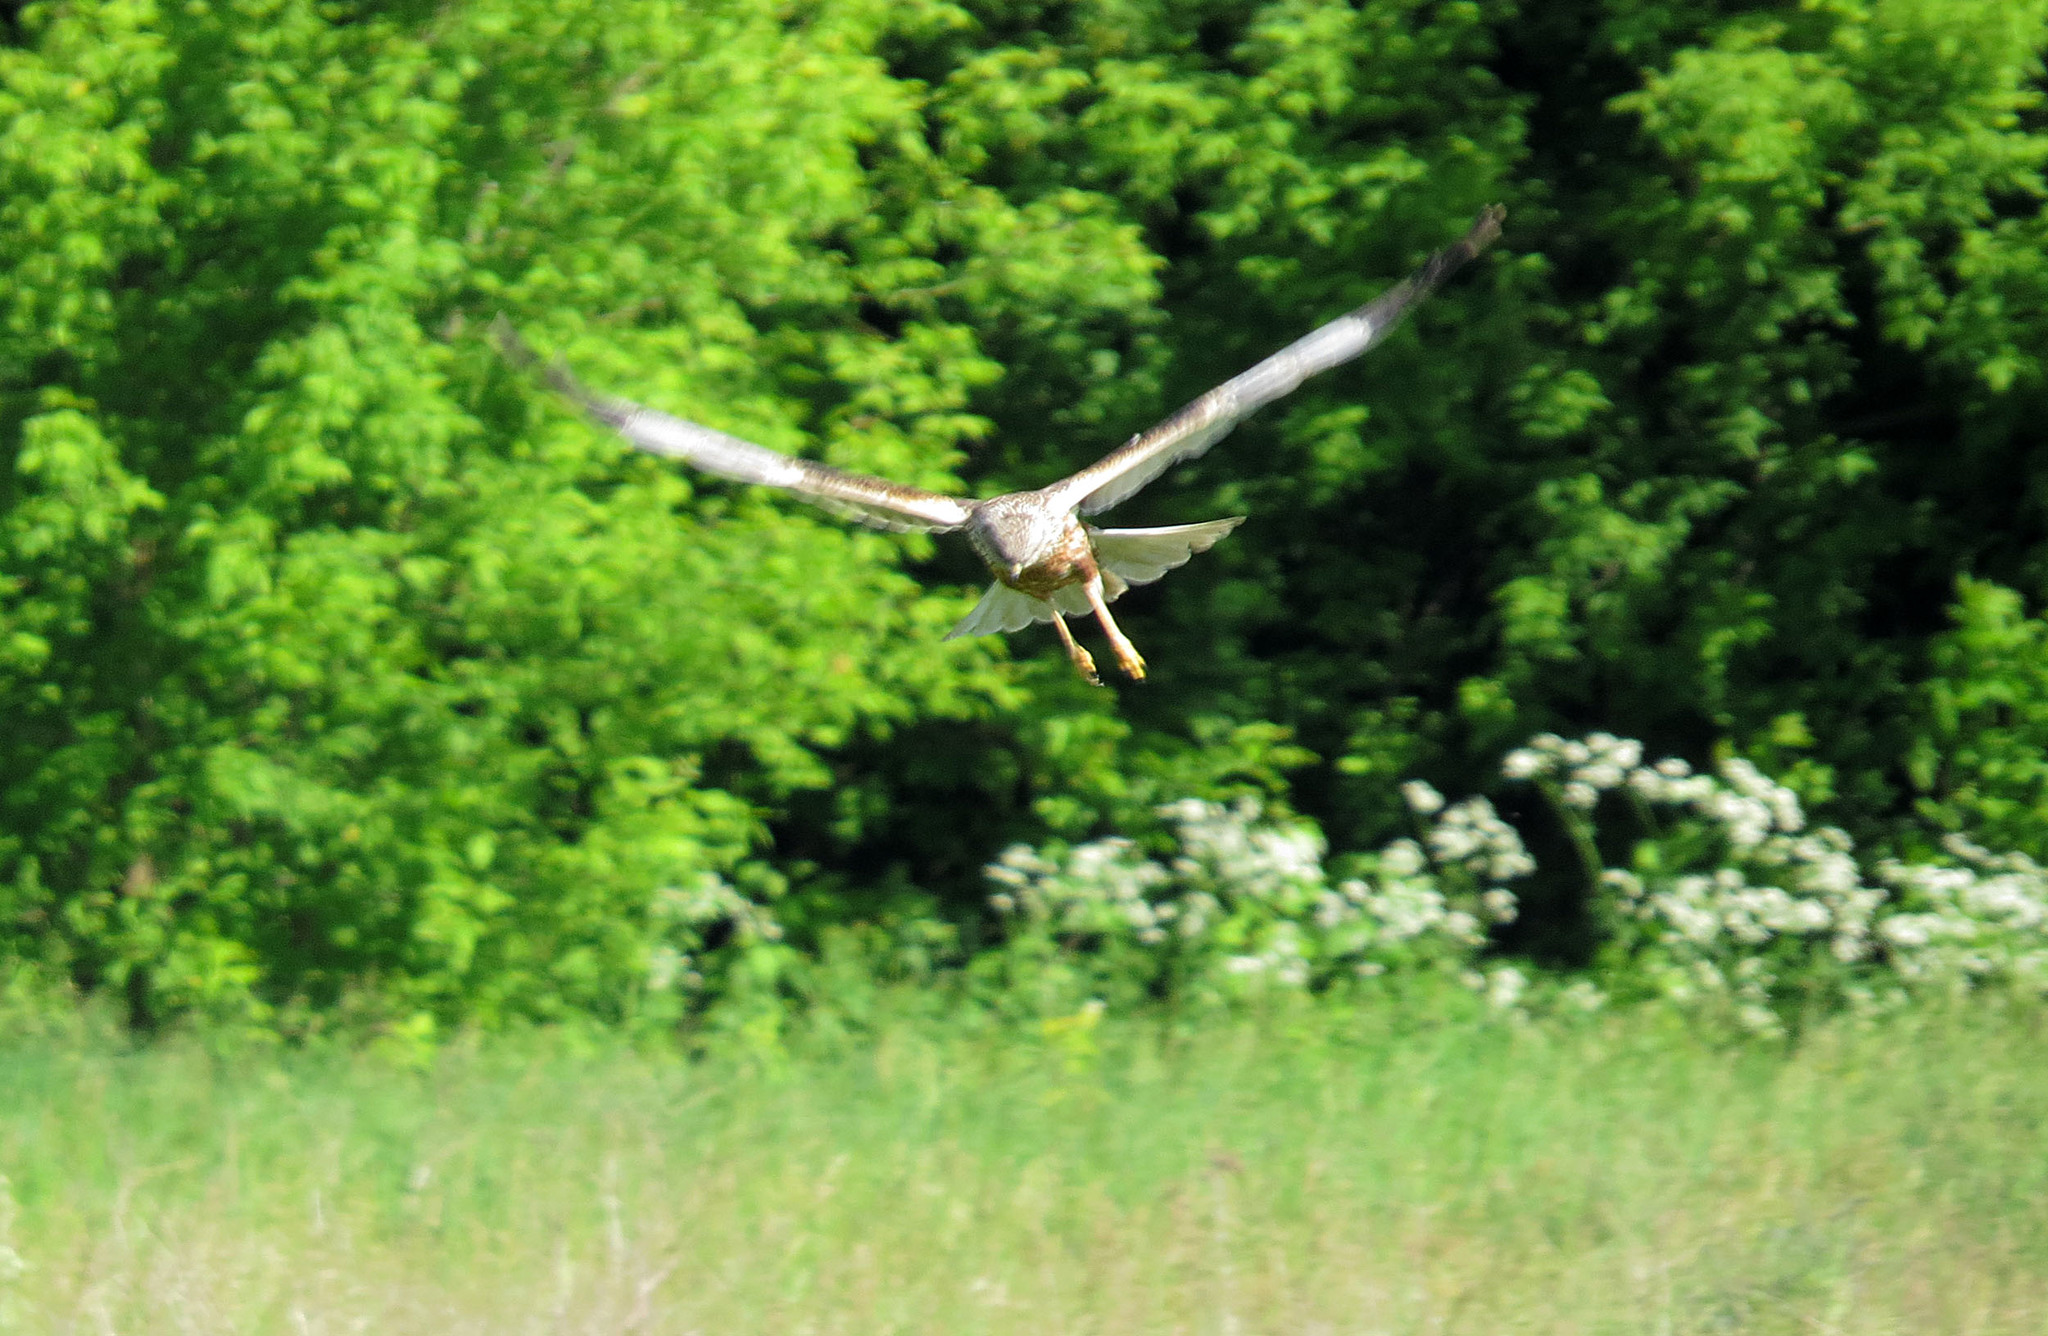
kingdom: Animalia
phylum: Chordata
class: Aves
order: Accipitriformes
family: Accipitridae
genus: Circus
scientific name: Circus aeruginosus
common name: Western marsh harrier
